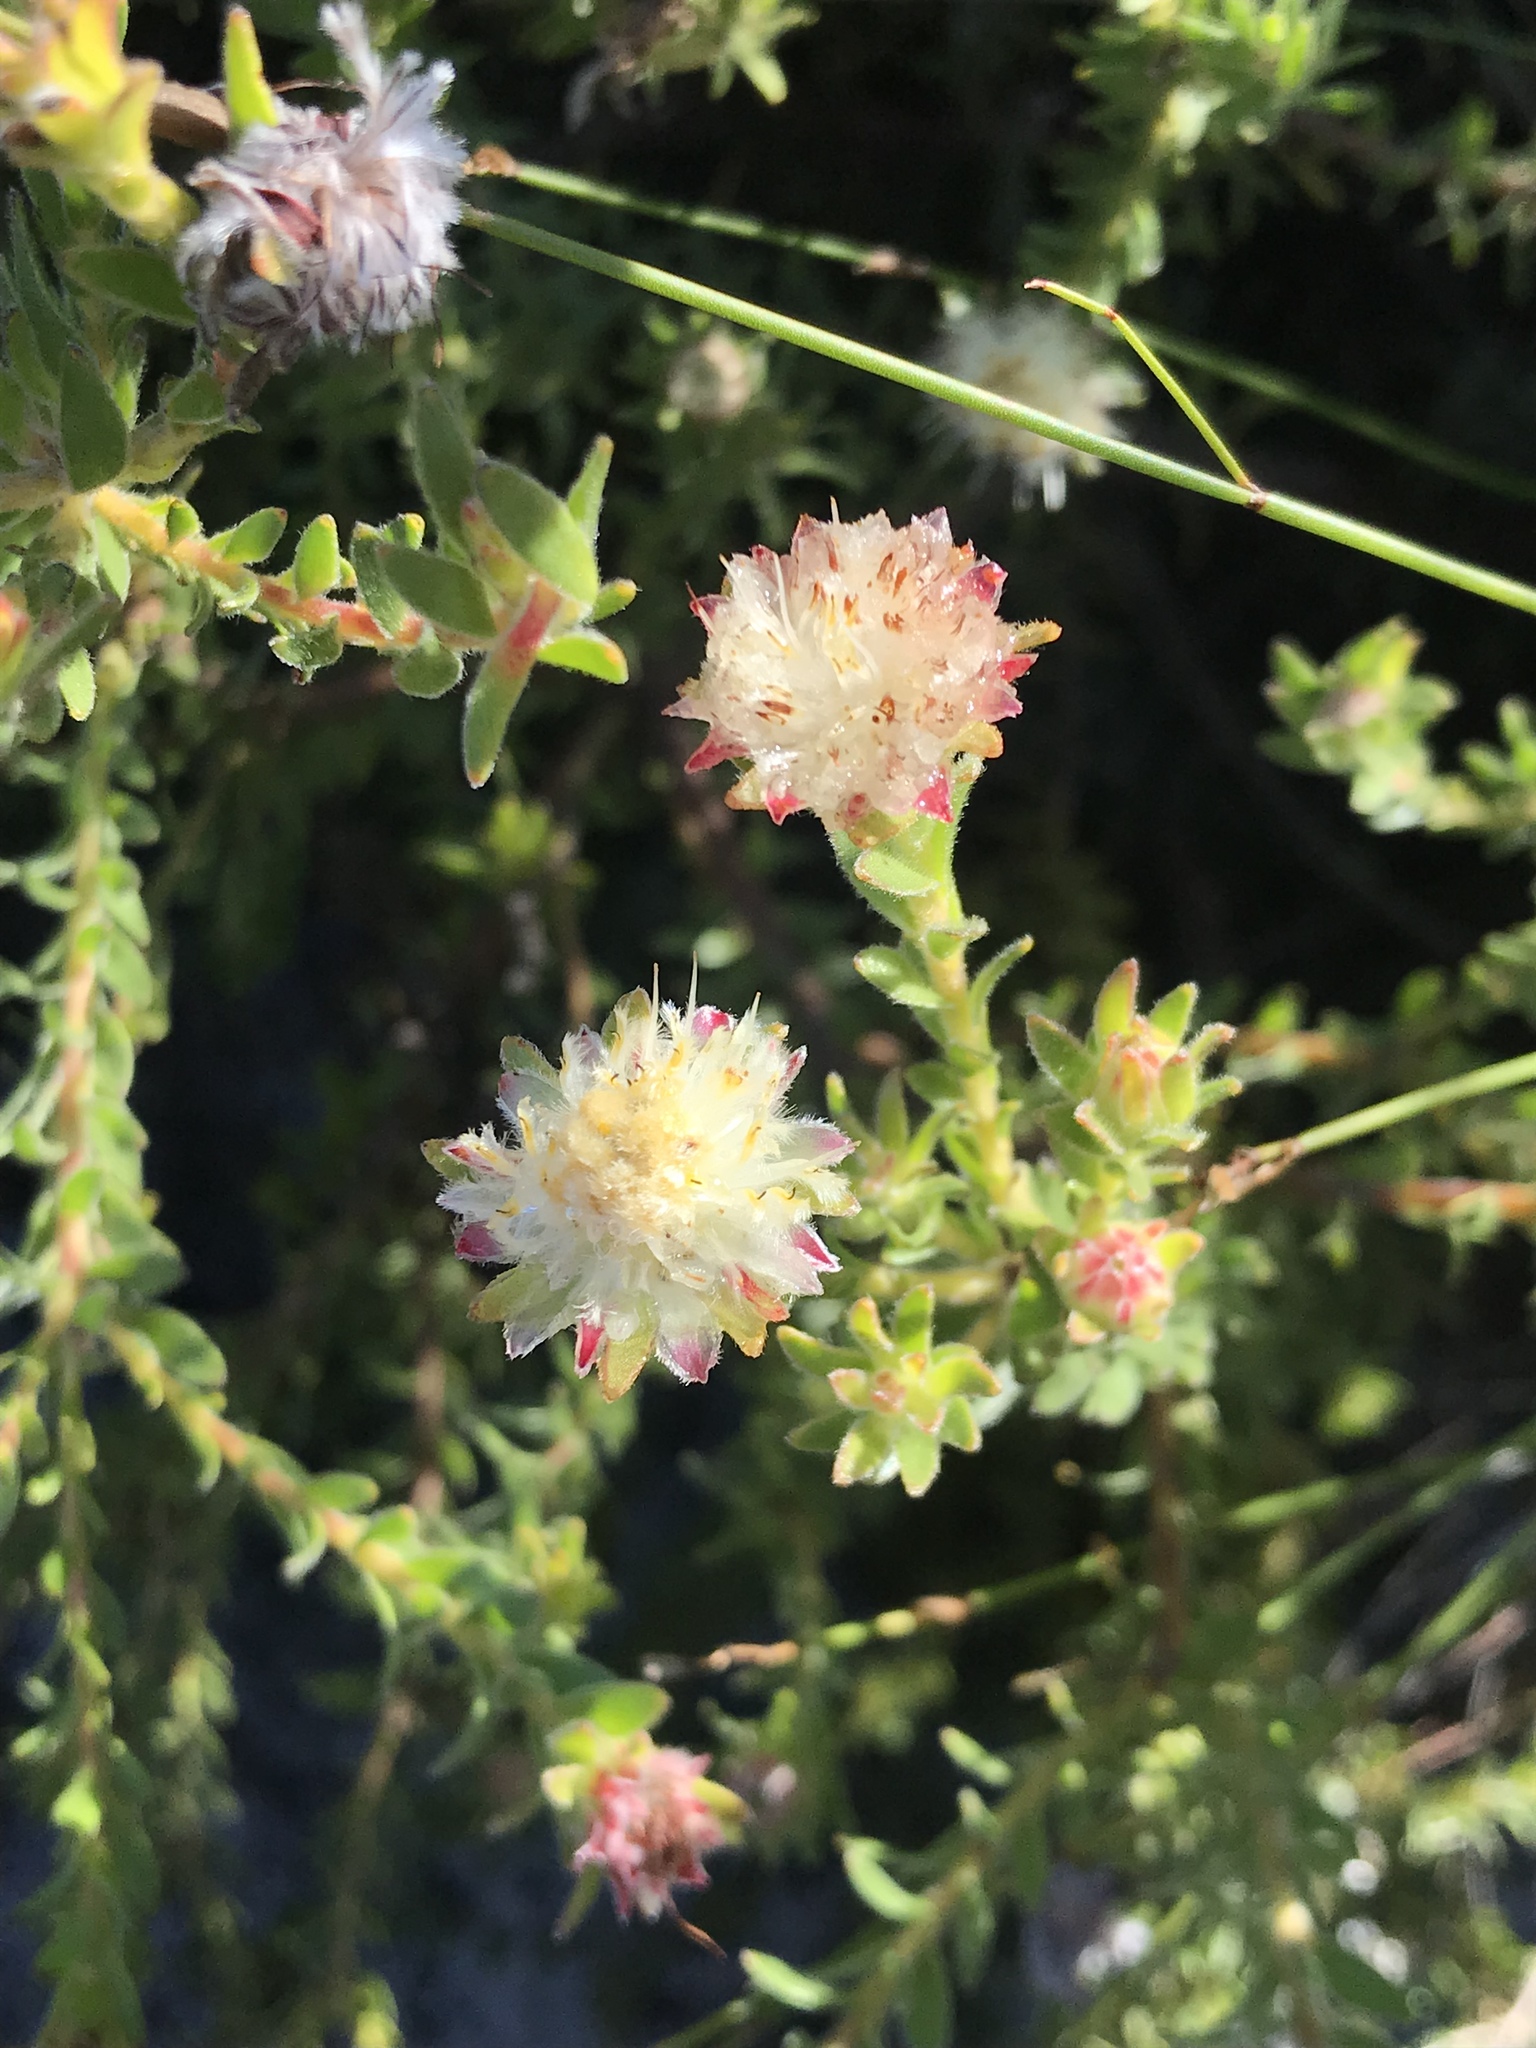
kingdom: Plantae
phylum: Tracheophyta
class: Magnoliopsida
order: Proteales
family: Proteaceae
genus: Diastella
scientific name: Diastella fraterna
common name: Palmiet silkypuff
